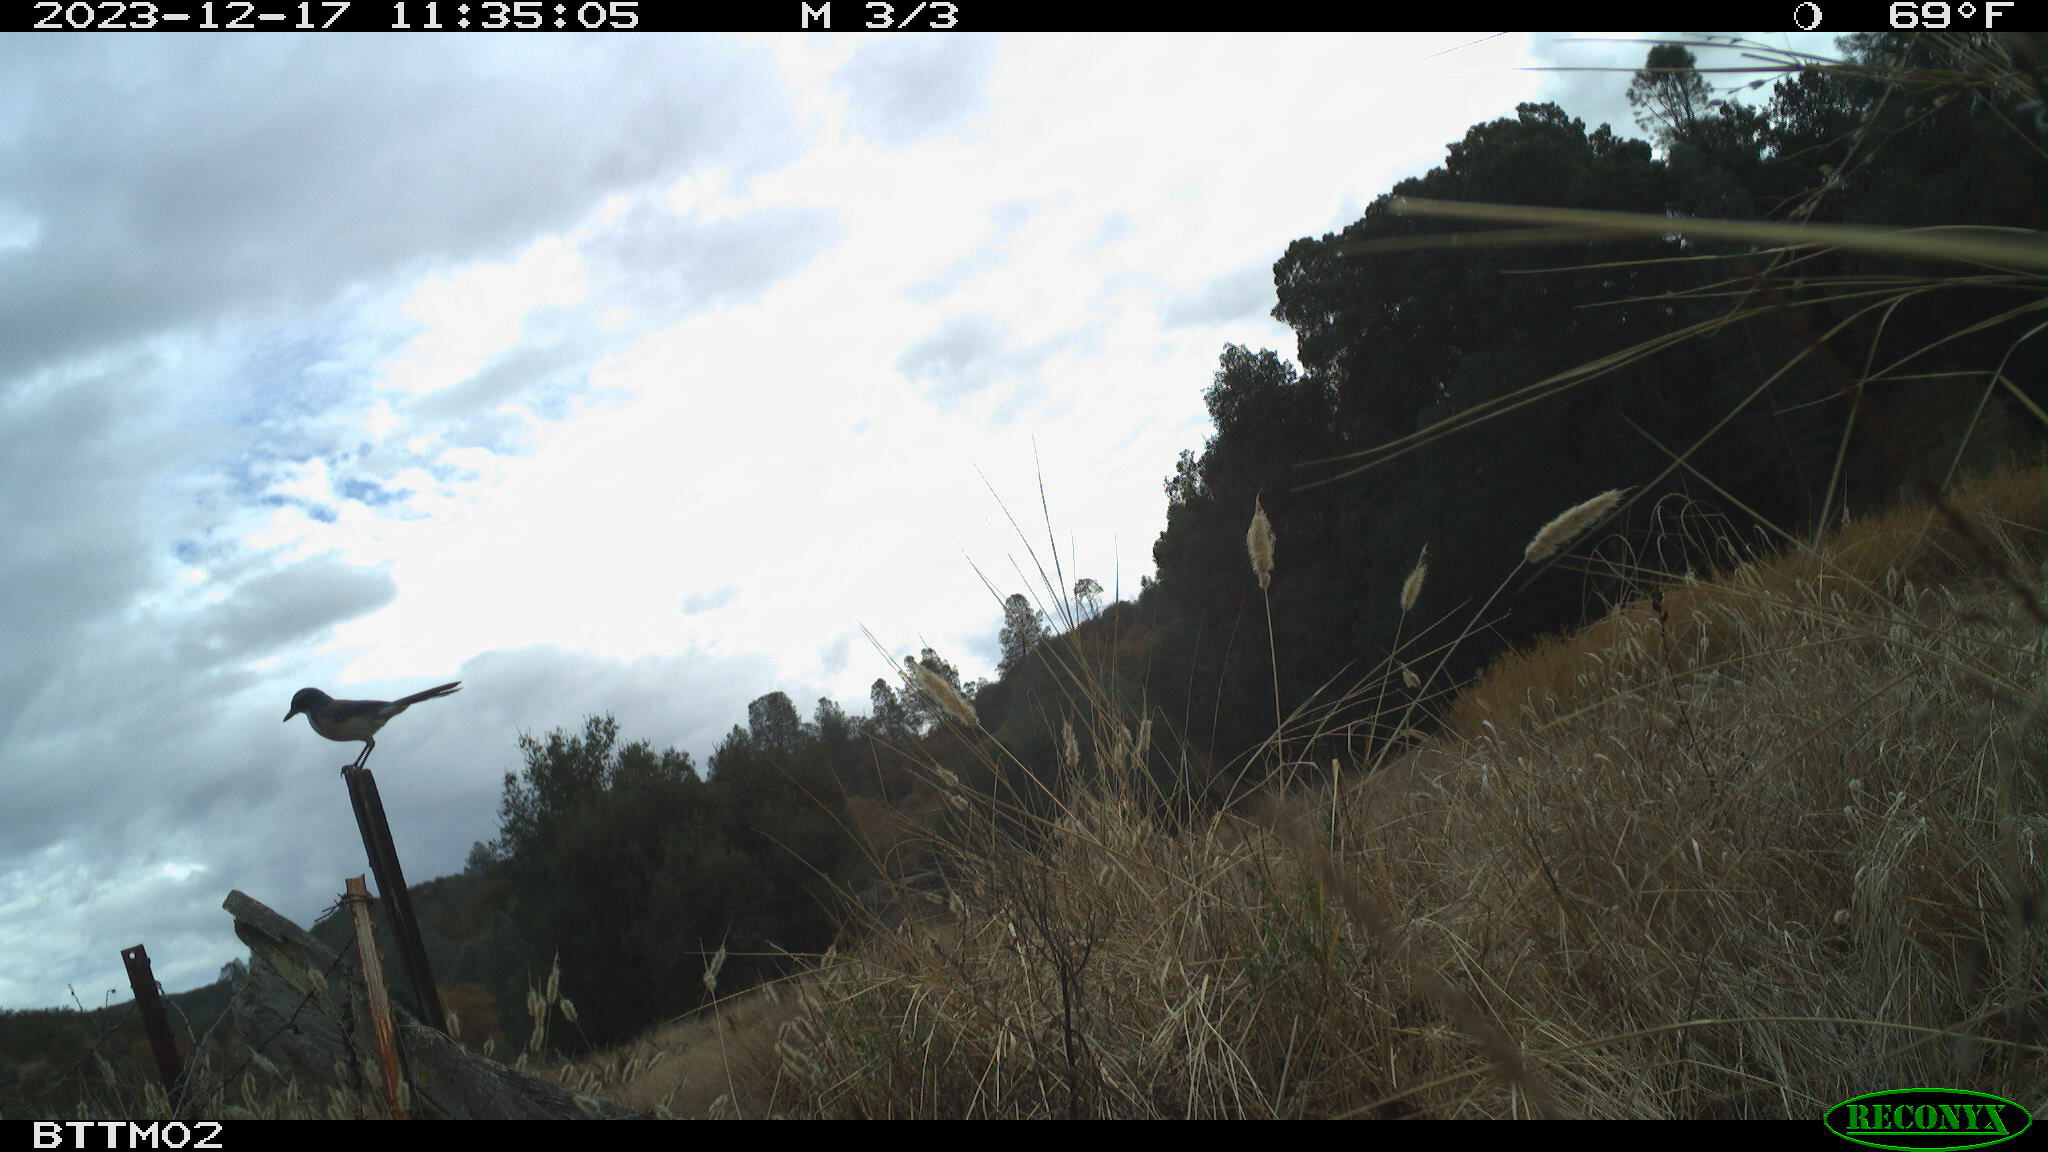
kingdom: Animalia
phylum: Chordata
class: Aves
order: Passeriformes
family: Corvidae
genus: Aphelocoma
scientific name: Aphelocoma californica
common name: California scrub-jay
